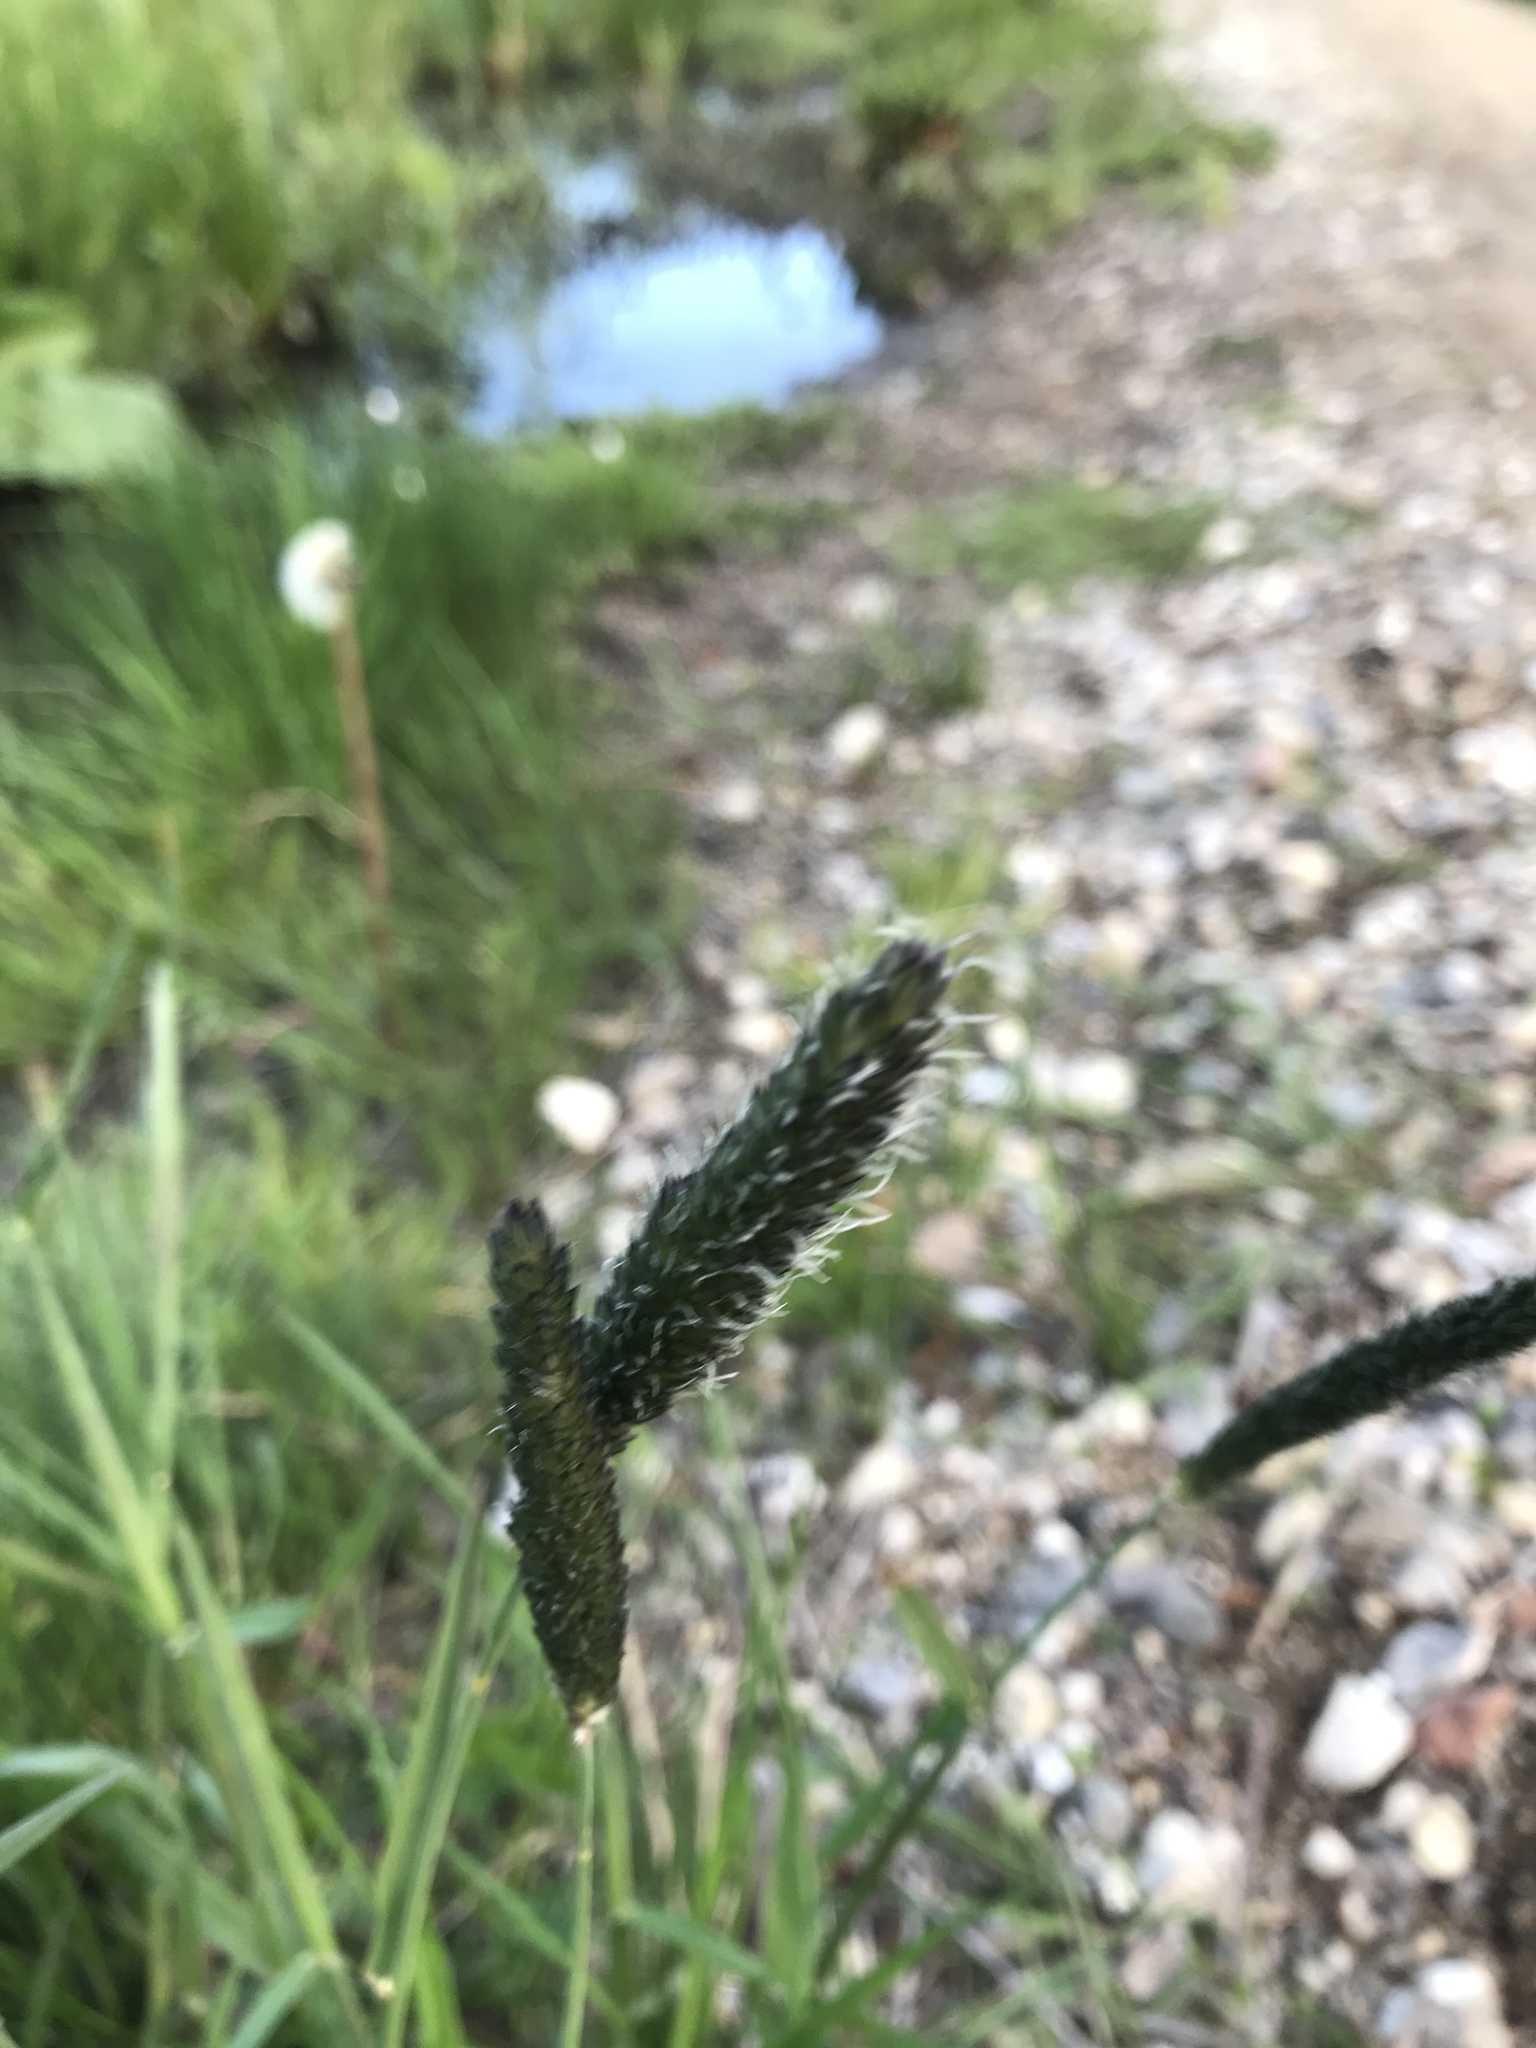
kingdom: Plantae
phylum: Tracheophyta
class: Liliopsida
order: Poales
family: Poaceae
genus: Alopecurus
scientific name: Alopecurus pratensis
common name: Meadow foxtail
